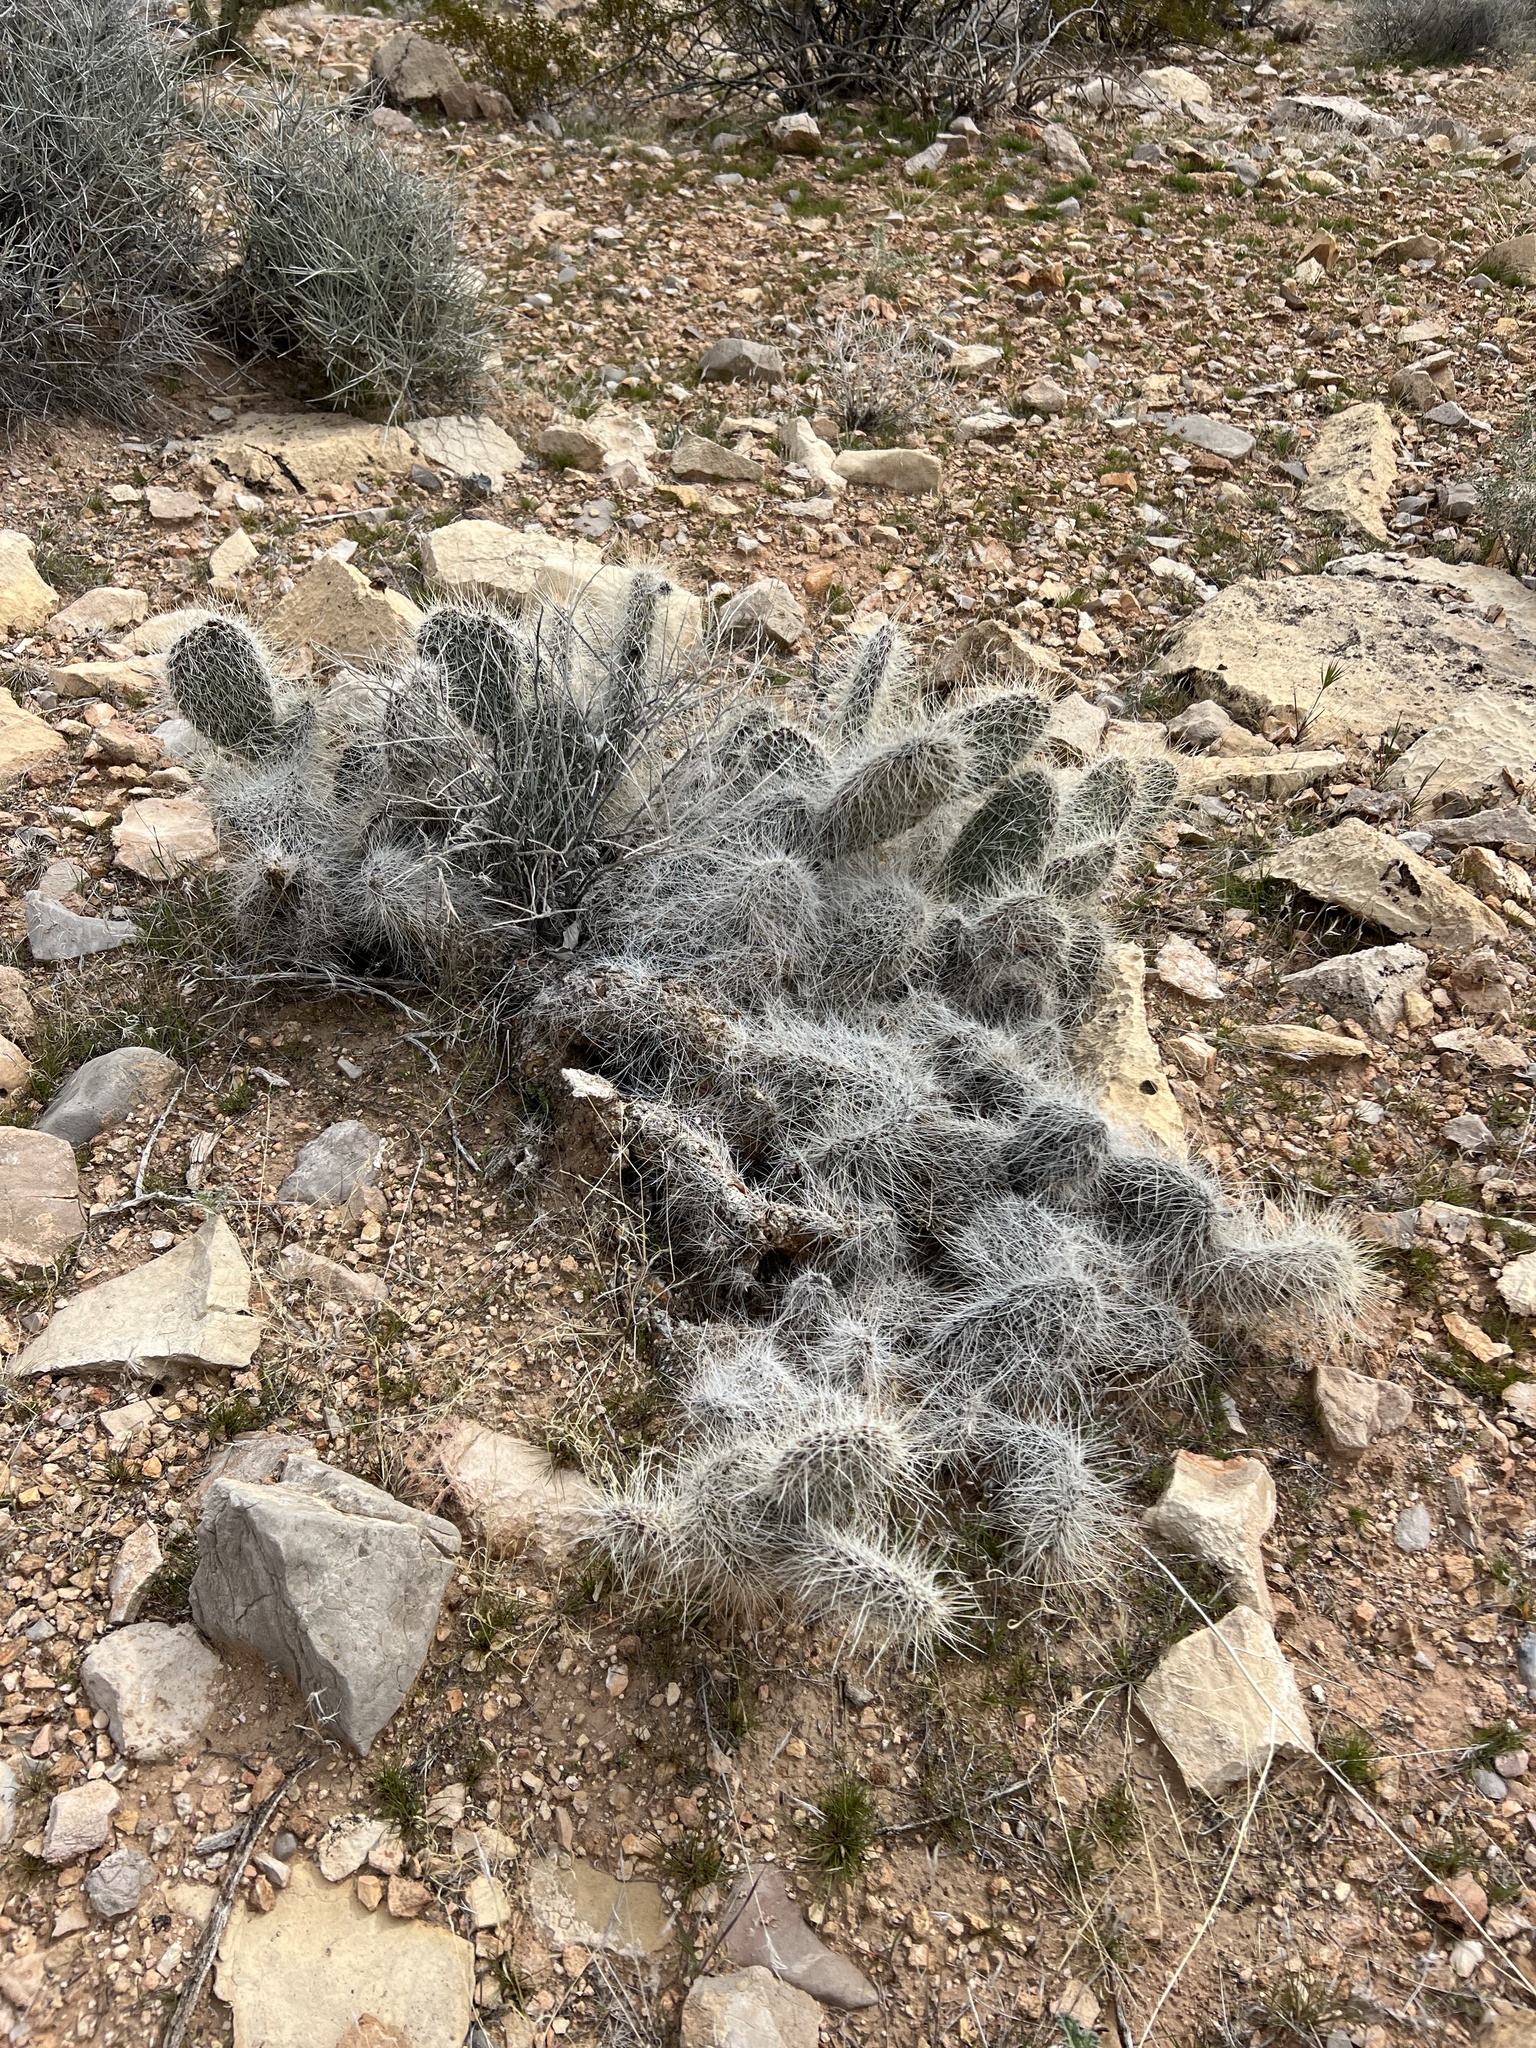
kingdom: Plantae
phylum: Tracheophyta
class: Magnoliopsida
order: Caryophyllales
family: Cactaceae
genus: Opuntia
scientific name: Opuntia polyacantha
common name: Plains prickly-pear
